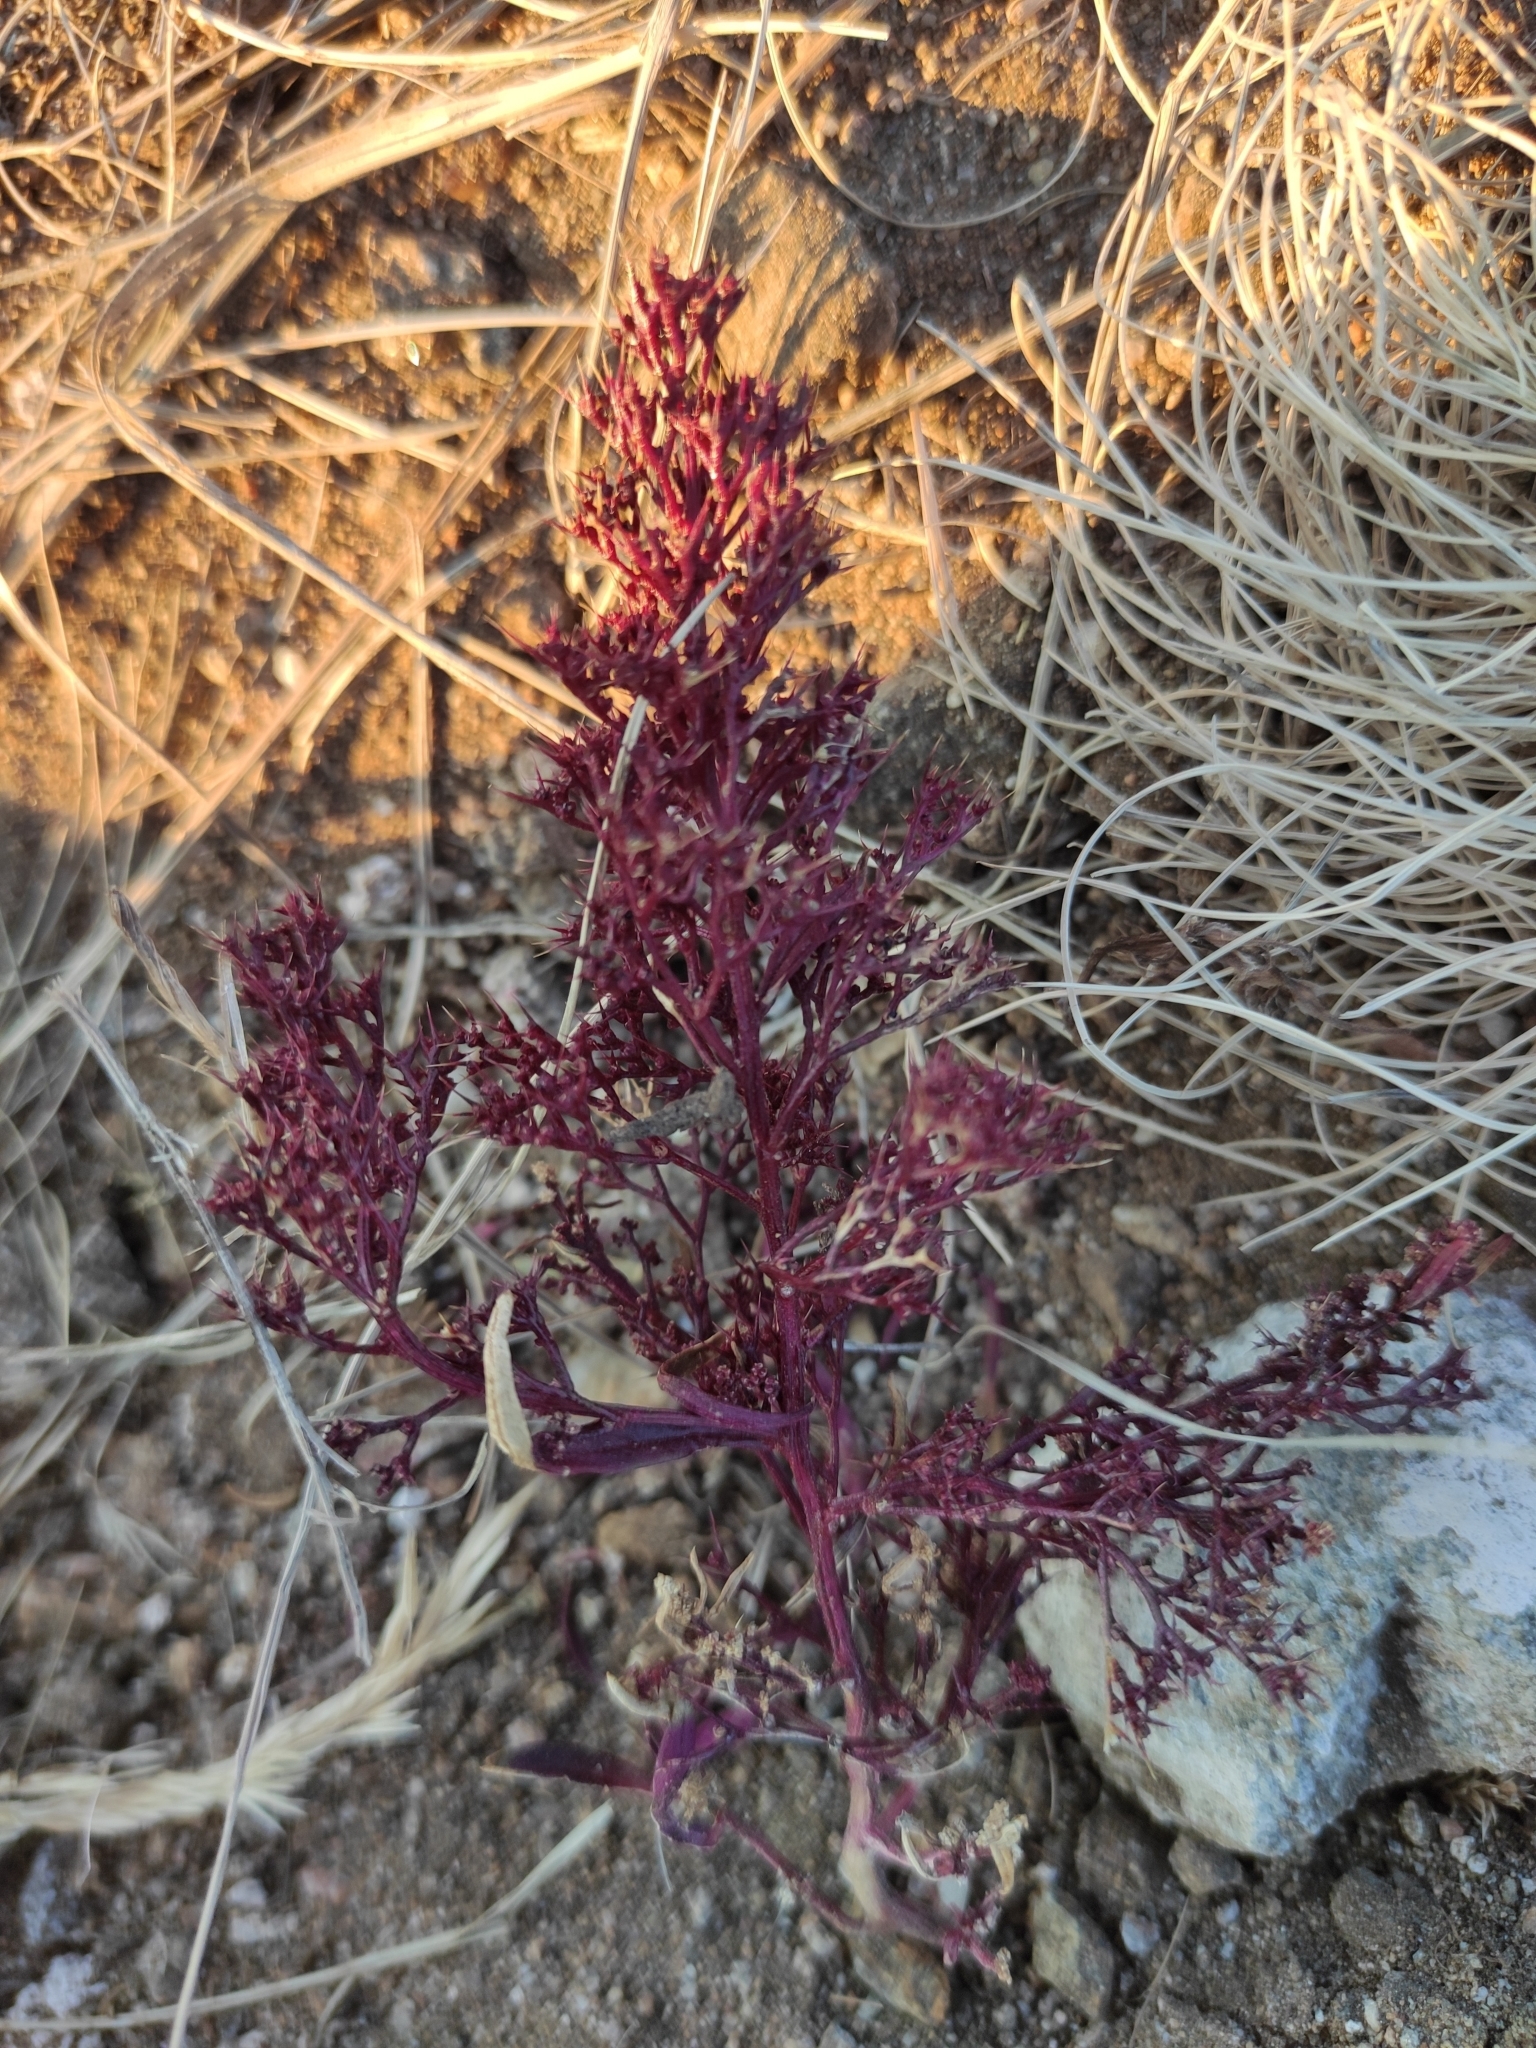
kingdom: Plantae
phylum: Tracheophyta
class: Magnoliopsida
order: Caryophyllales
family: Amaranthaceae
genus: Teloxys
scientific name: Teloxys aristata
